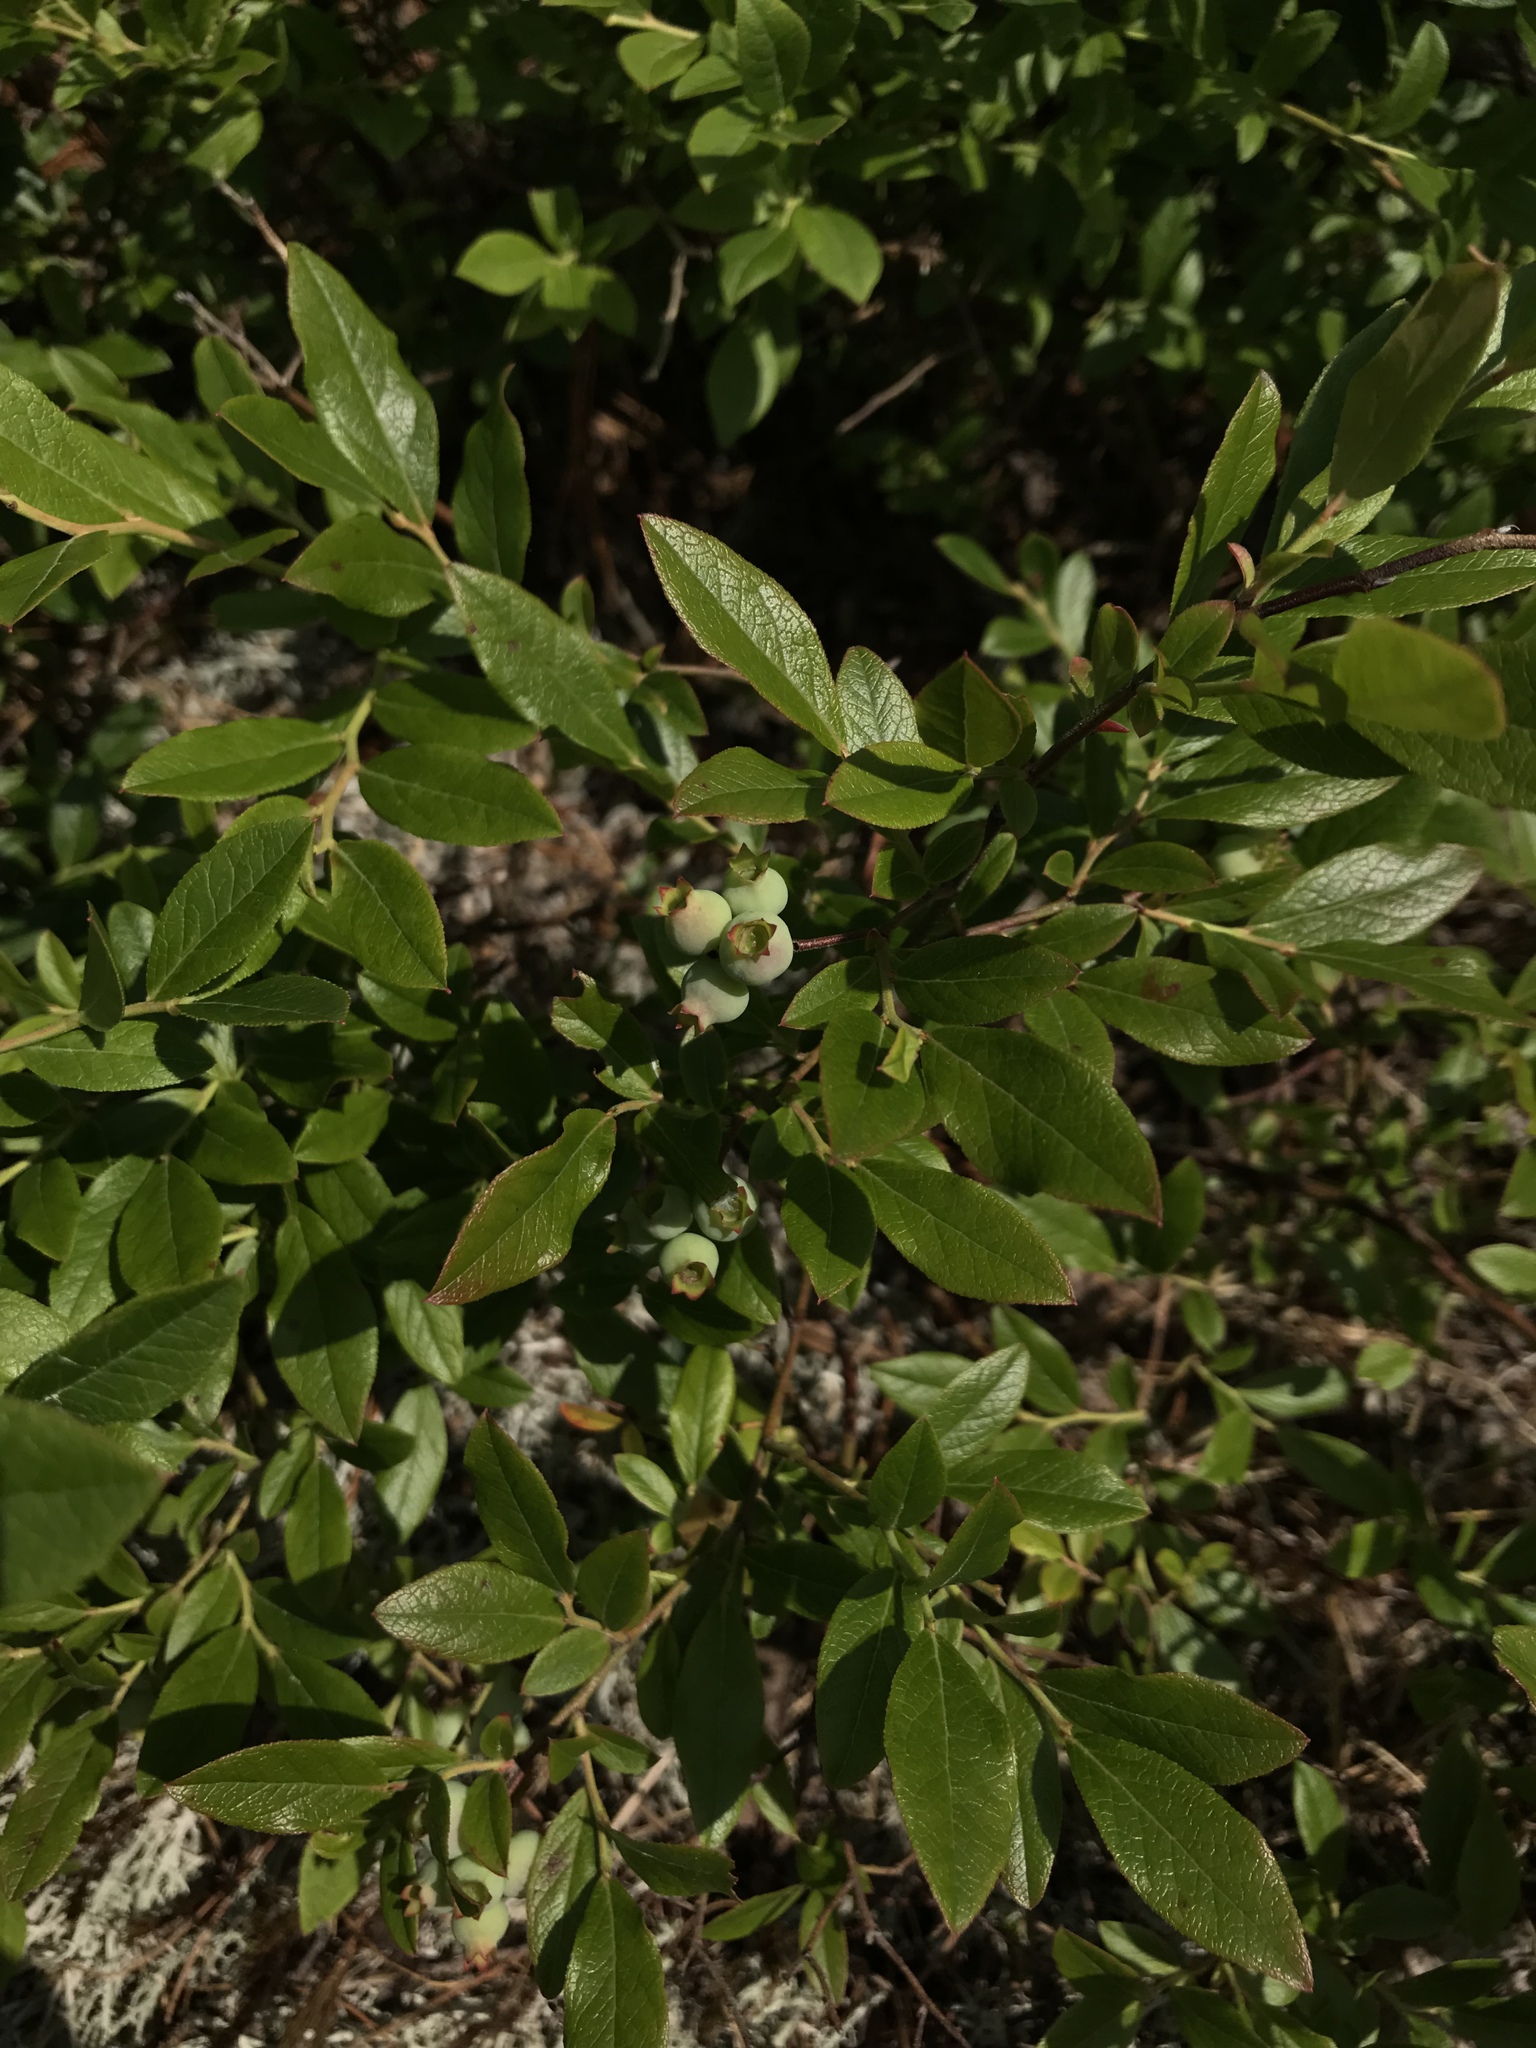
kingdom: Plantae
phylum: Tracheophyta
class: Magnoliopsida
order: Ericales
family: Ericaceae
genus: Vaccinium
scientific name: Vaccinium angustifolium
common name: Early lowbush blueberry
